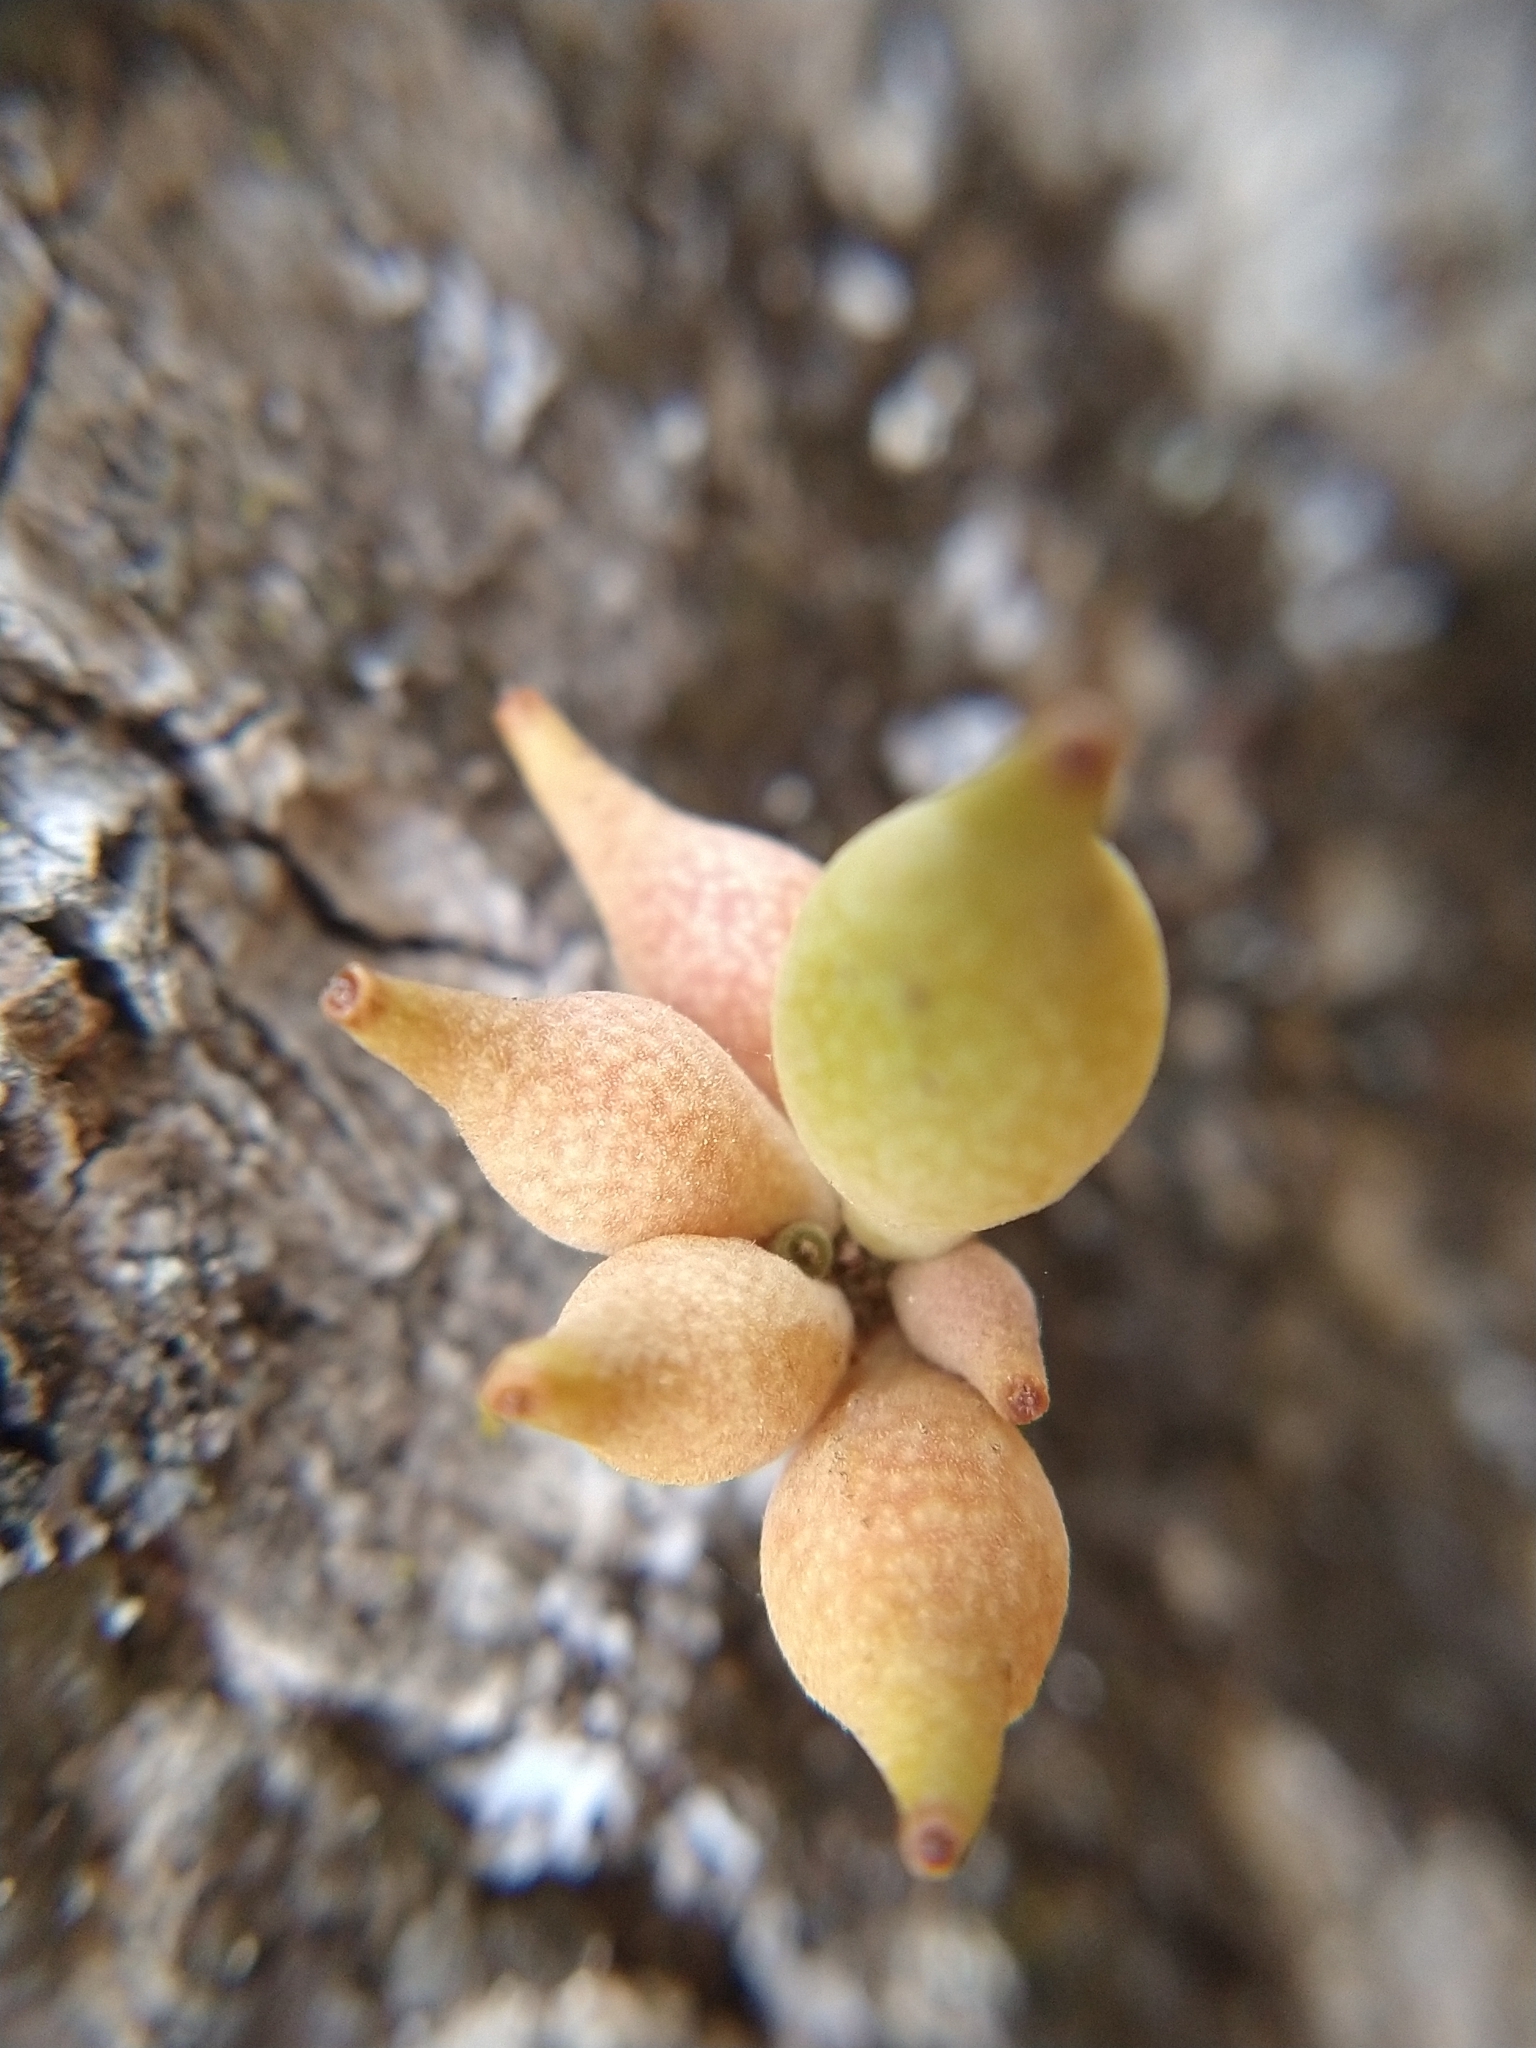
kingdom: Animalia
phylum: Arthropoda
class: Insecta
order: Hymenoptera
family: Cynipidae
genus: Heteroecus
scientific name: Heteroecus pacificus
